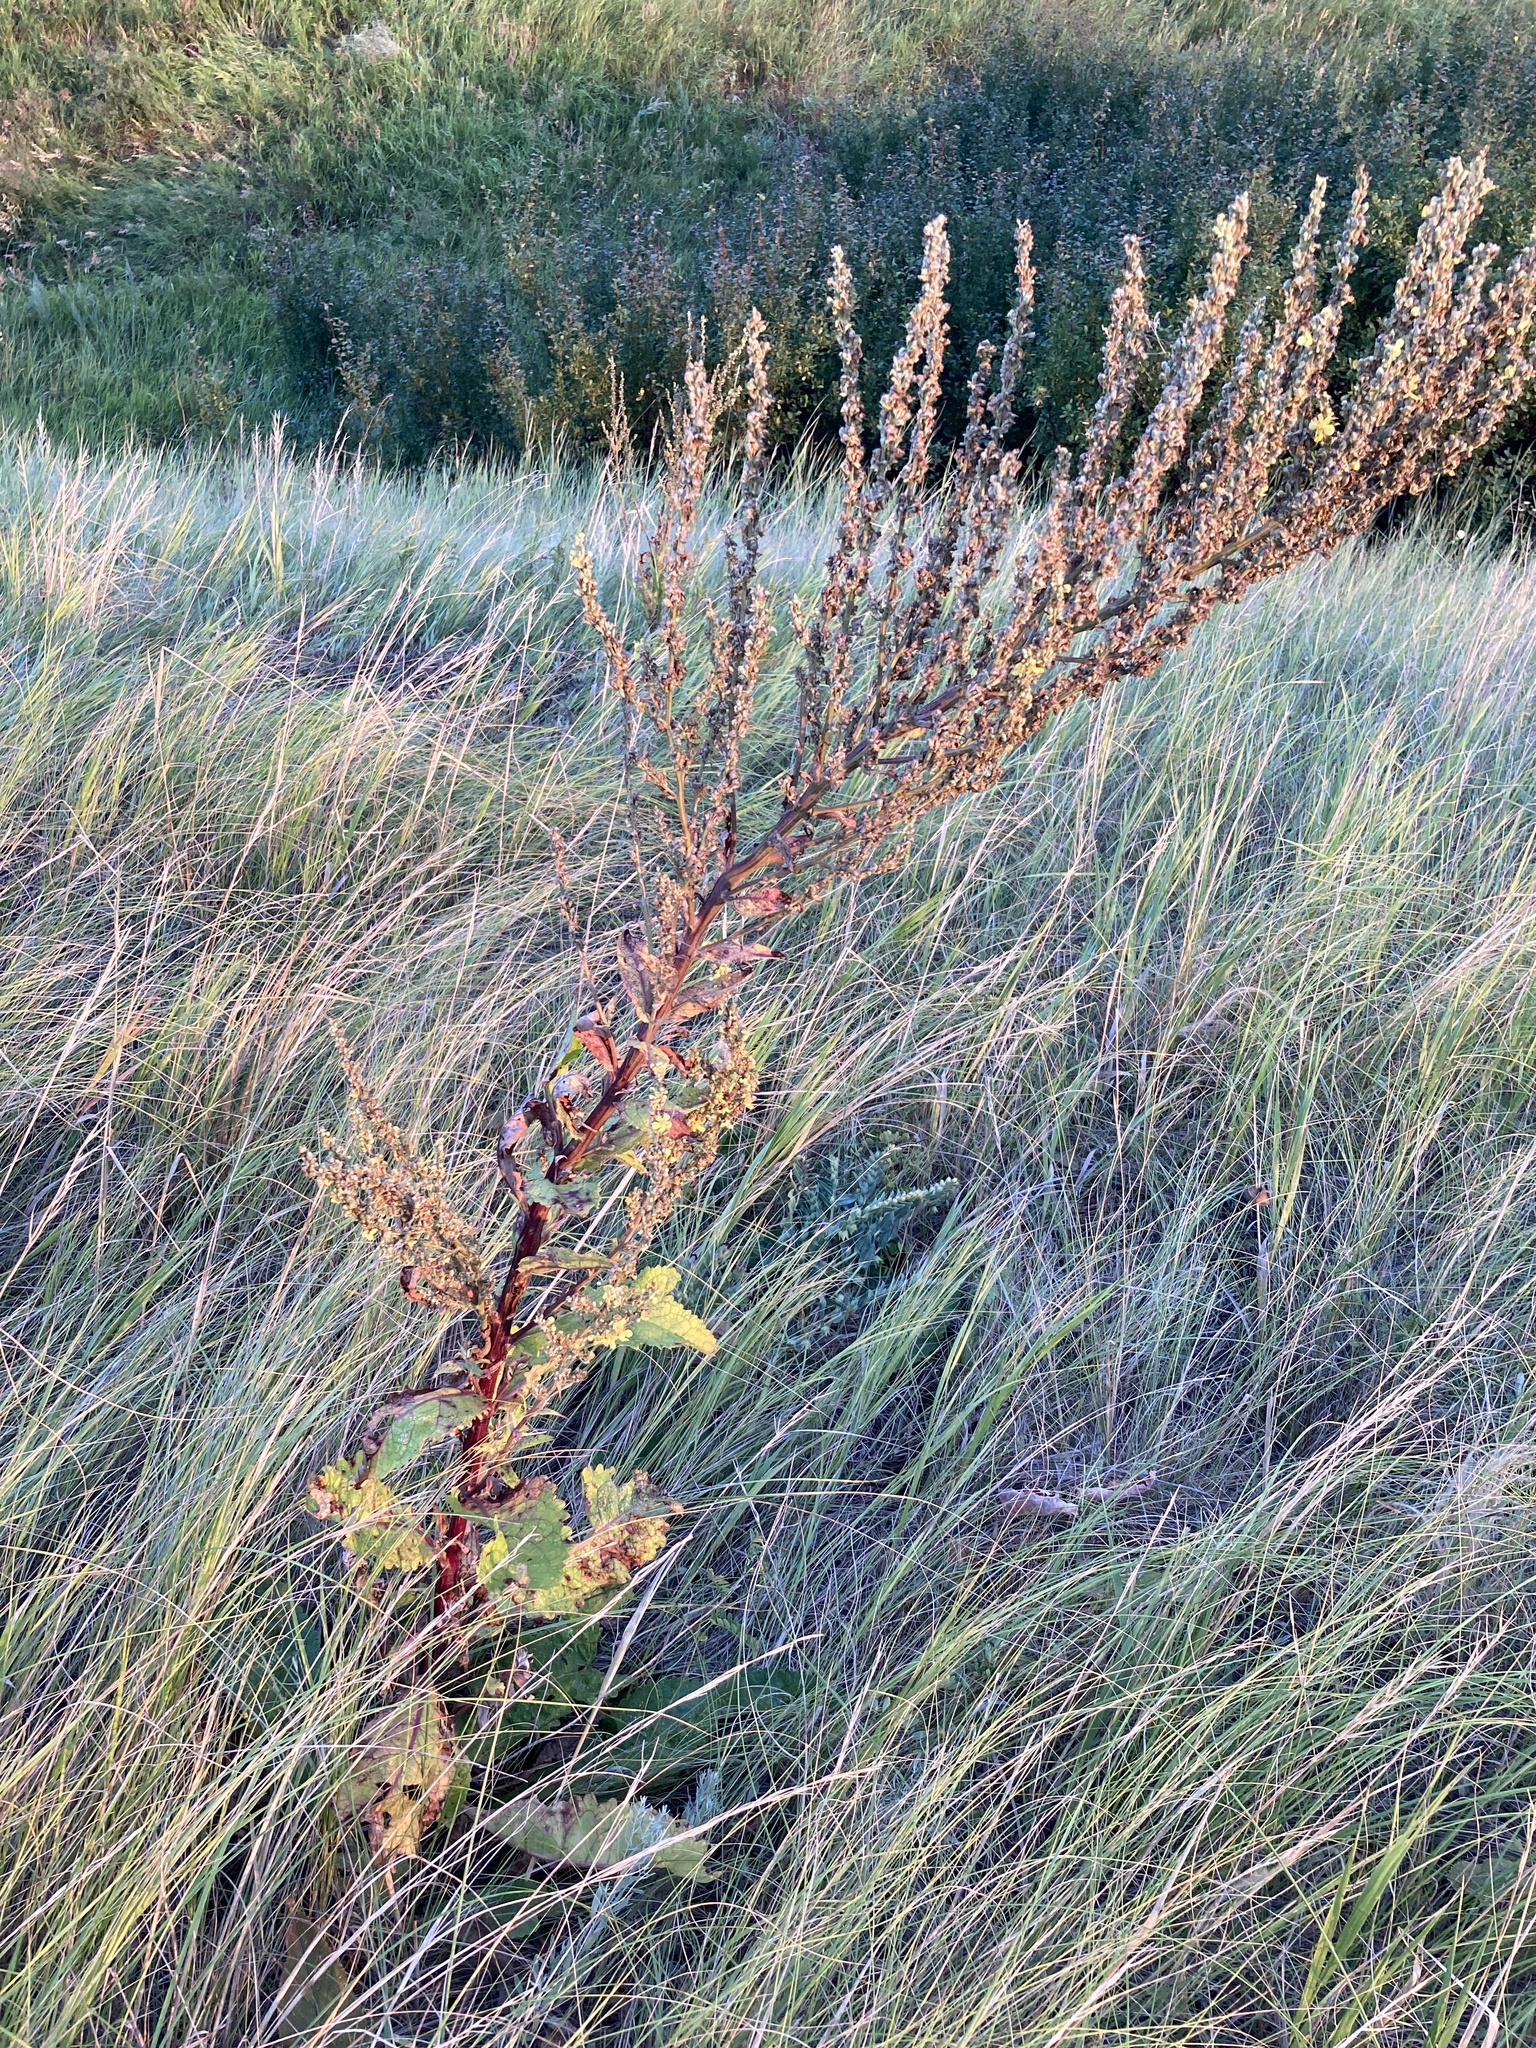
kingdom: Plantae
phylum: Tracheophyta
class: Magnoliopsida
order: Lamiales
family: Scrophulariaceae
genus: Verbascum
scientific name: Verbascum lychnitis
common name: White mullein
